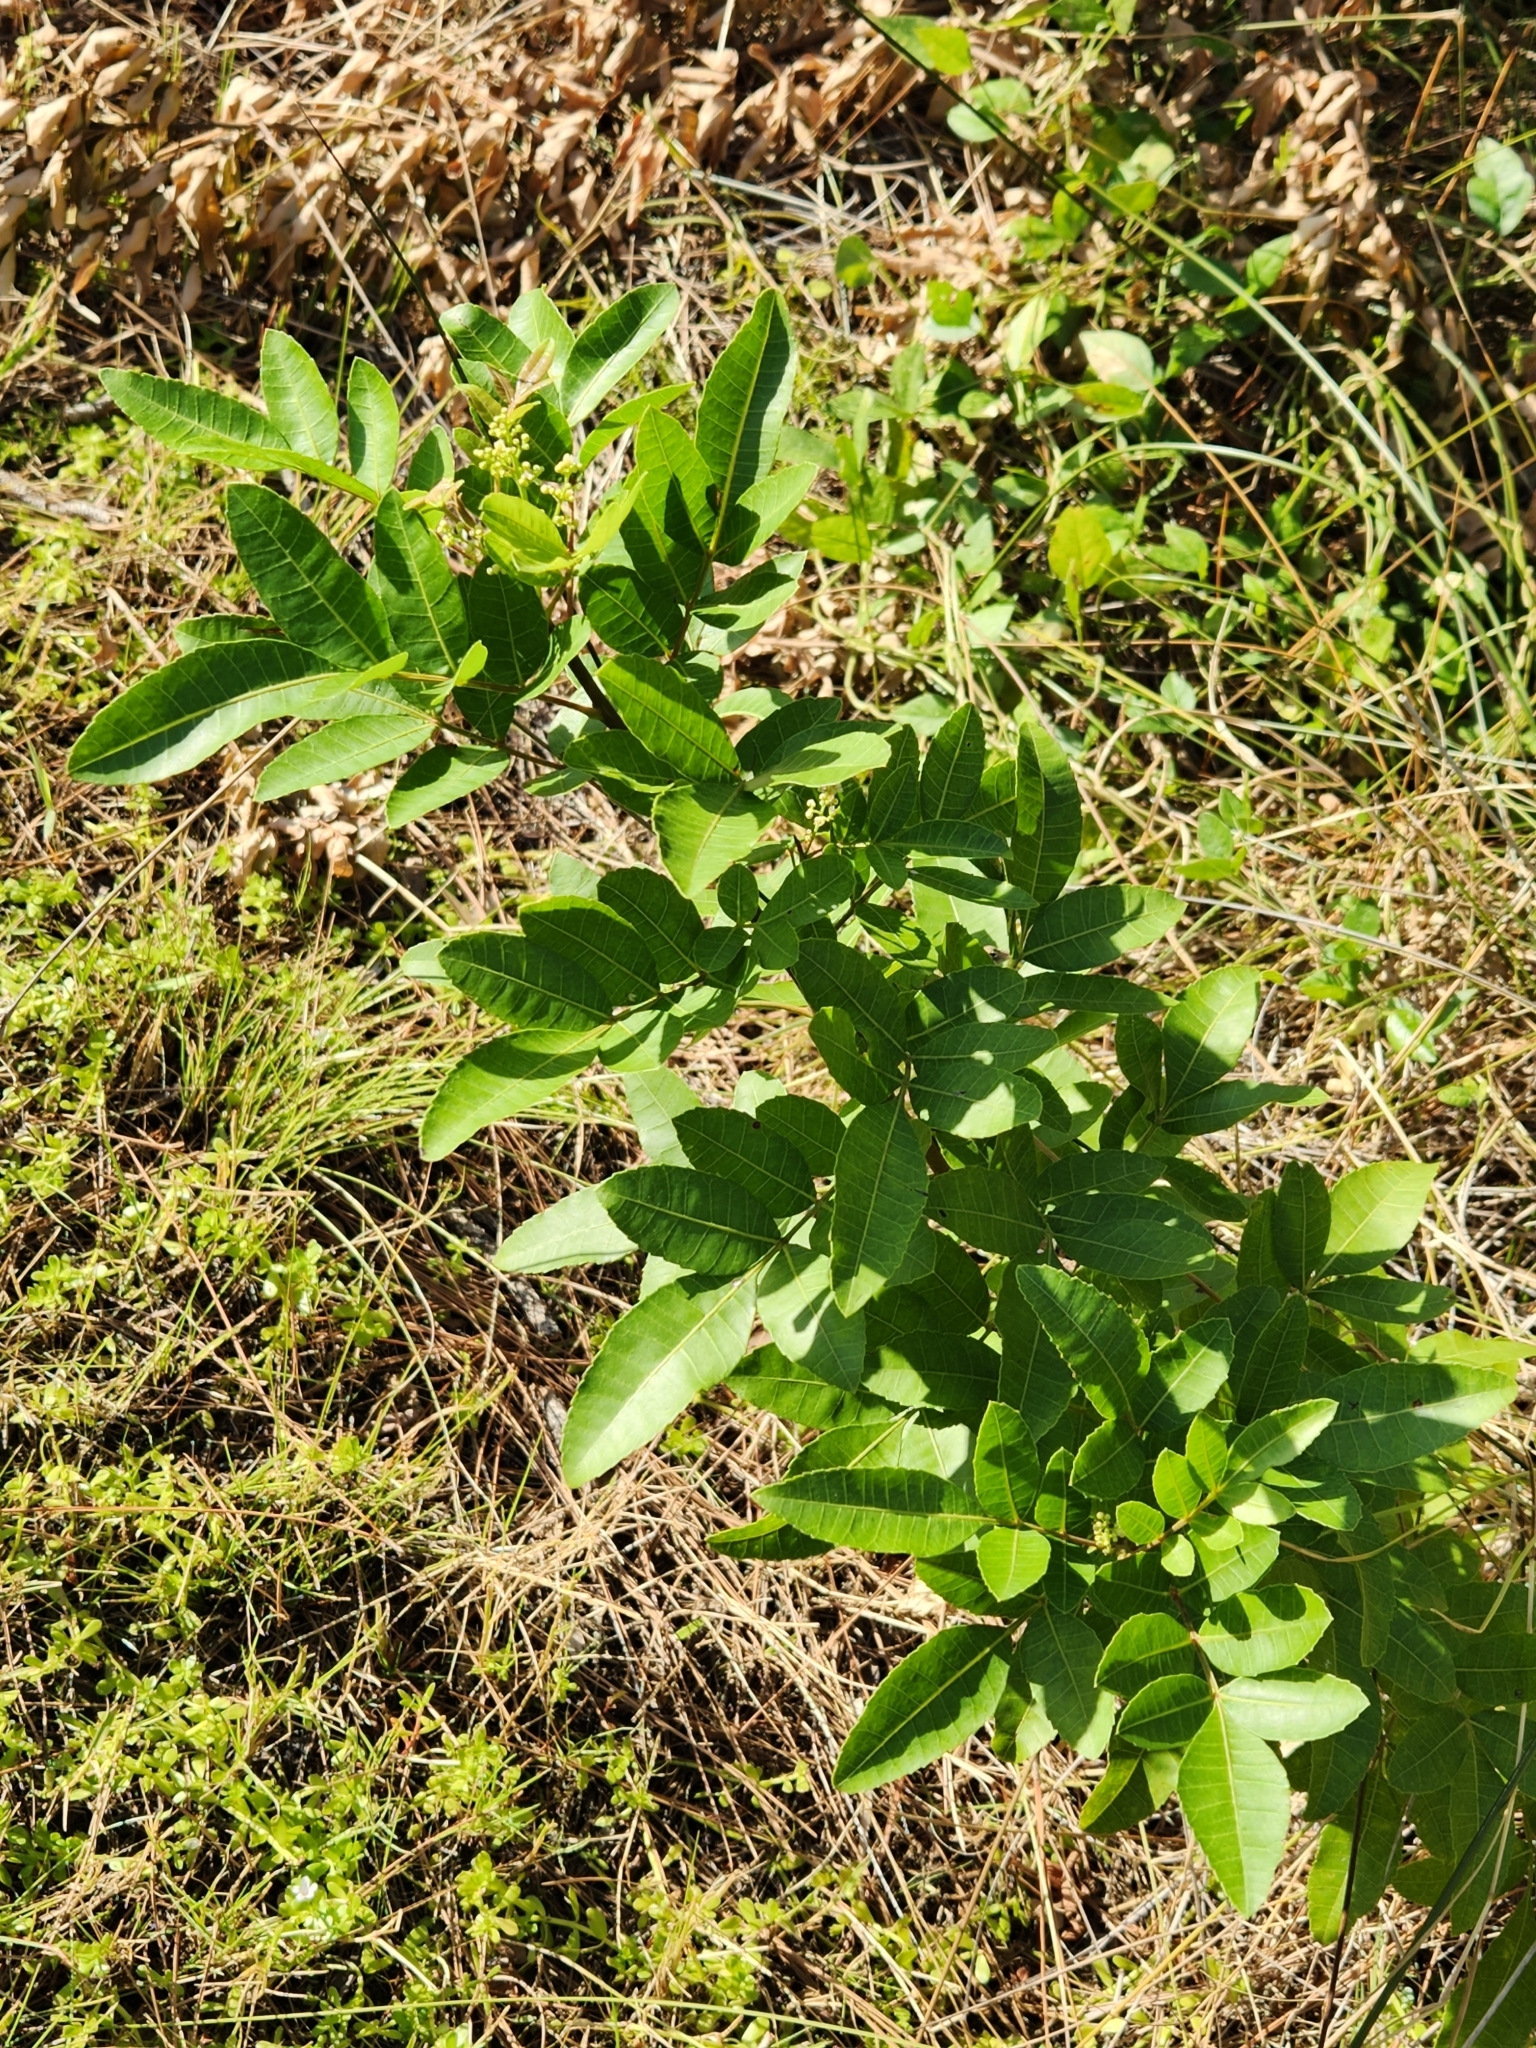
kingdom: Plantae
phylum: Tracheophyta
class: Magnoliopsida
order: Sapindales
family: Anacardiaceae
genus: Schinus
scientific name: Schinus terebinthifolia
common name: Brazilian peppertree
